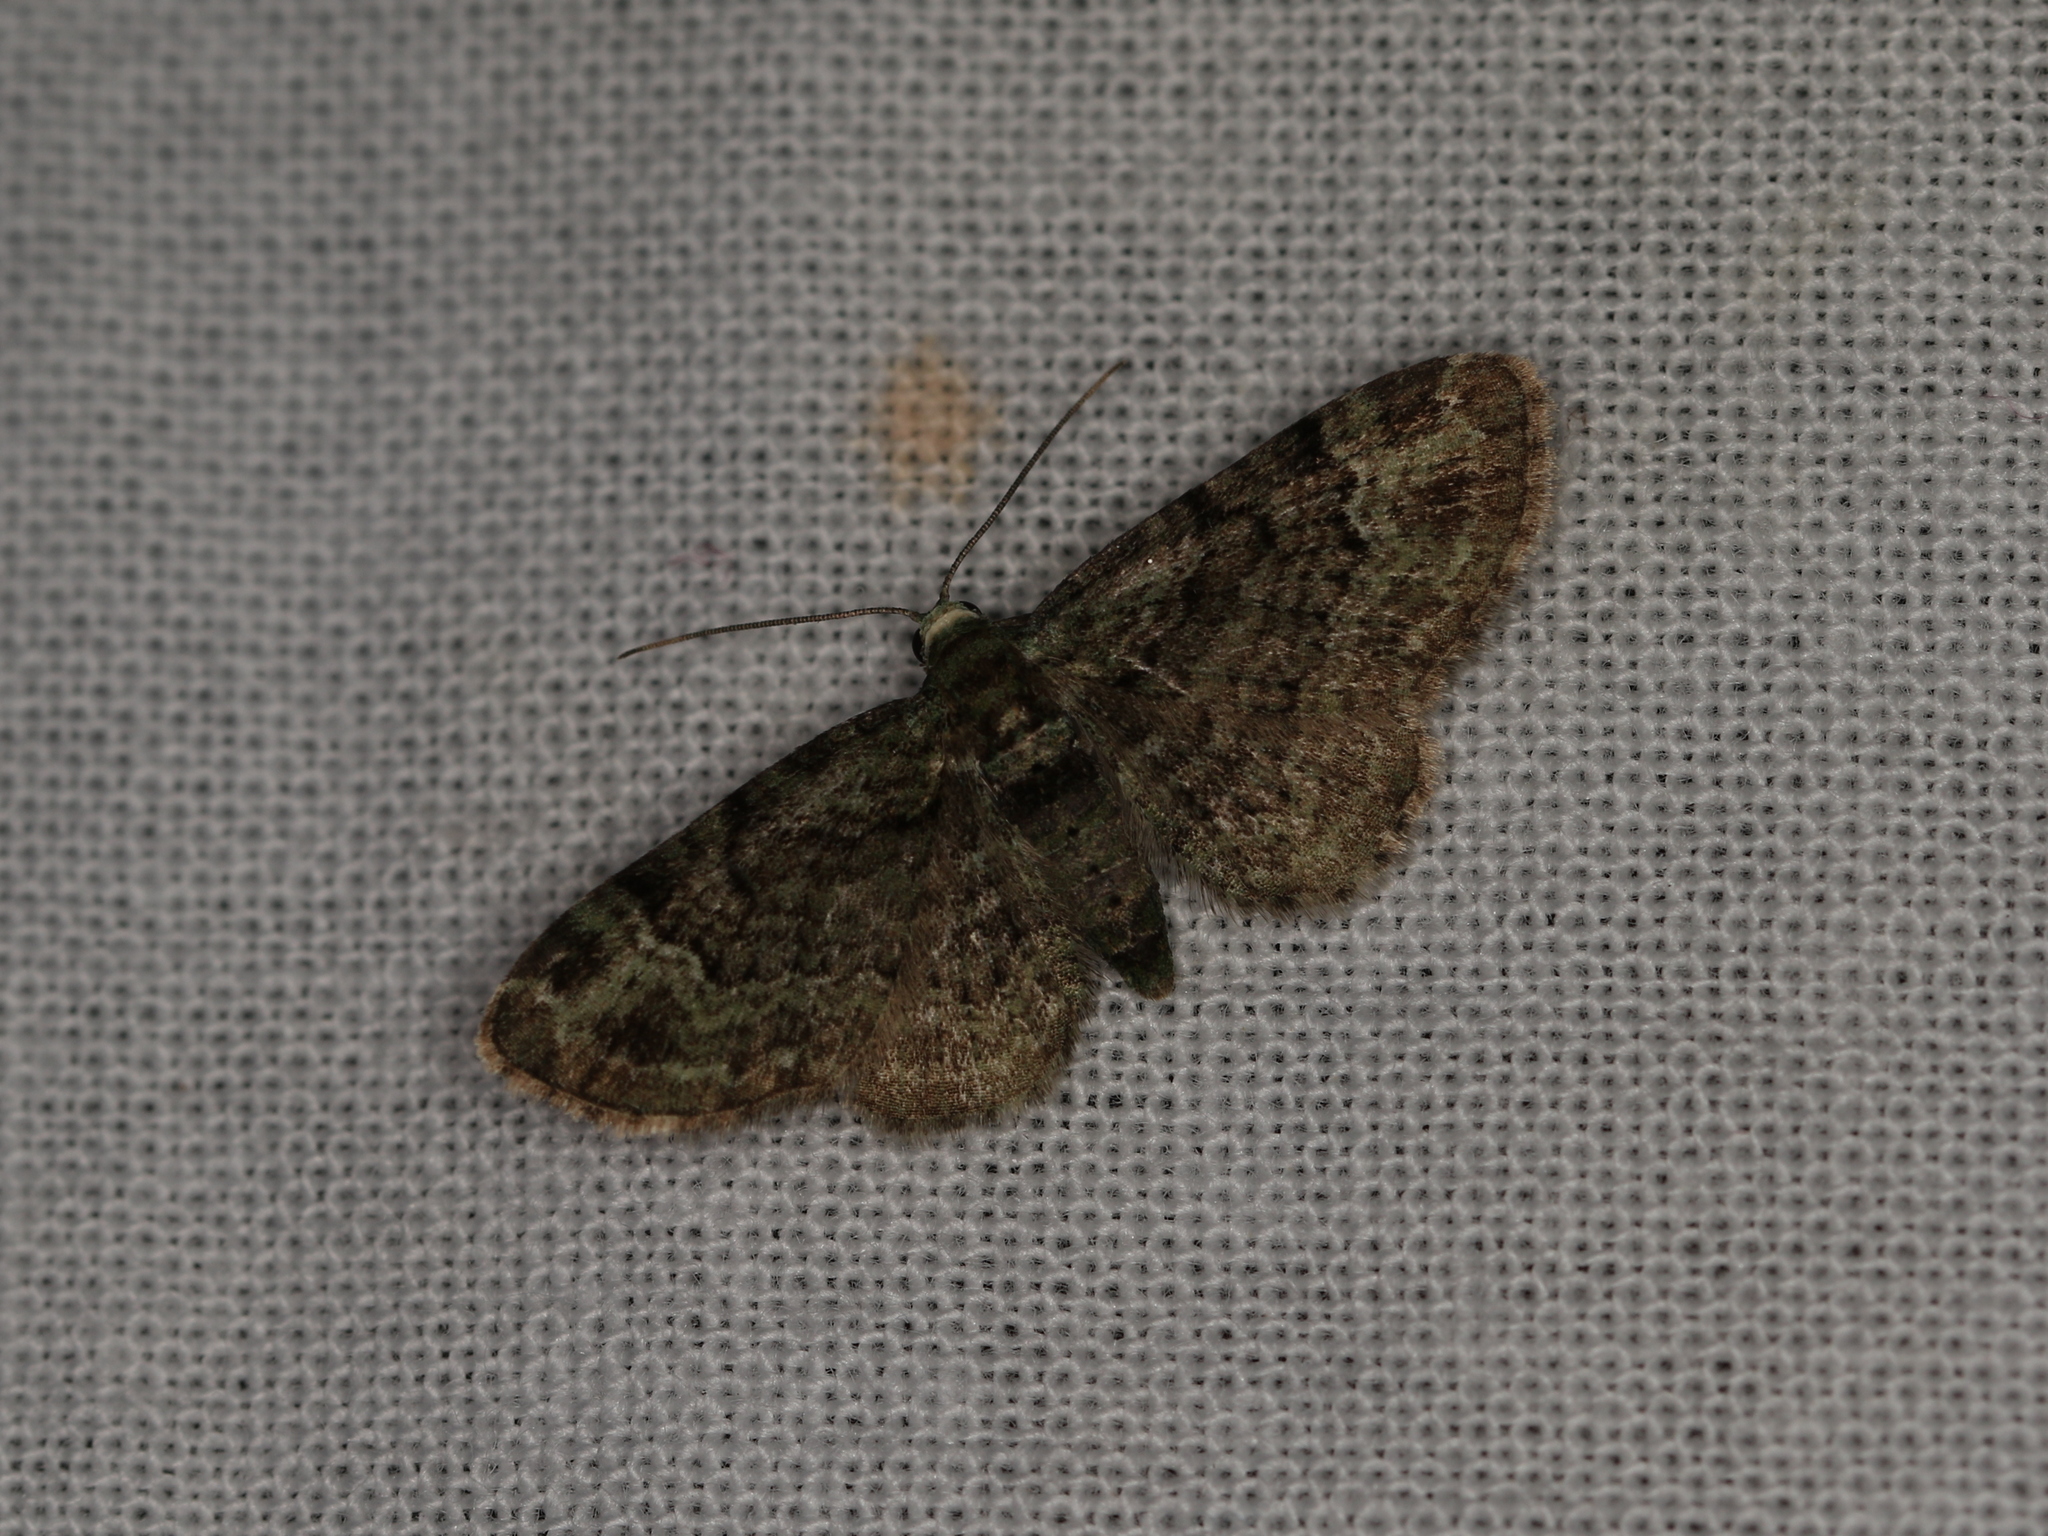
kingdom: Animalia
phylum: Arthropoda
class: Insecta
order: Lepidoptera
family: Geometridae
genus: Pasiphila
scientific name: Pasiphila rectangulata
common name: Green pug
